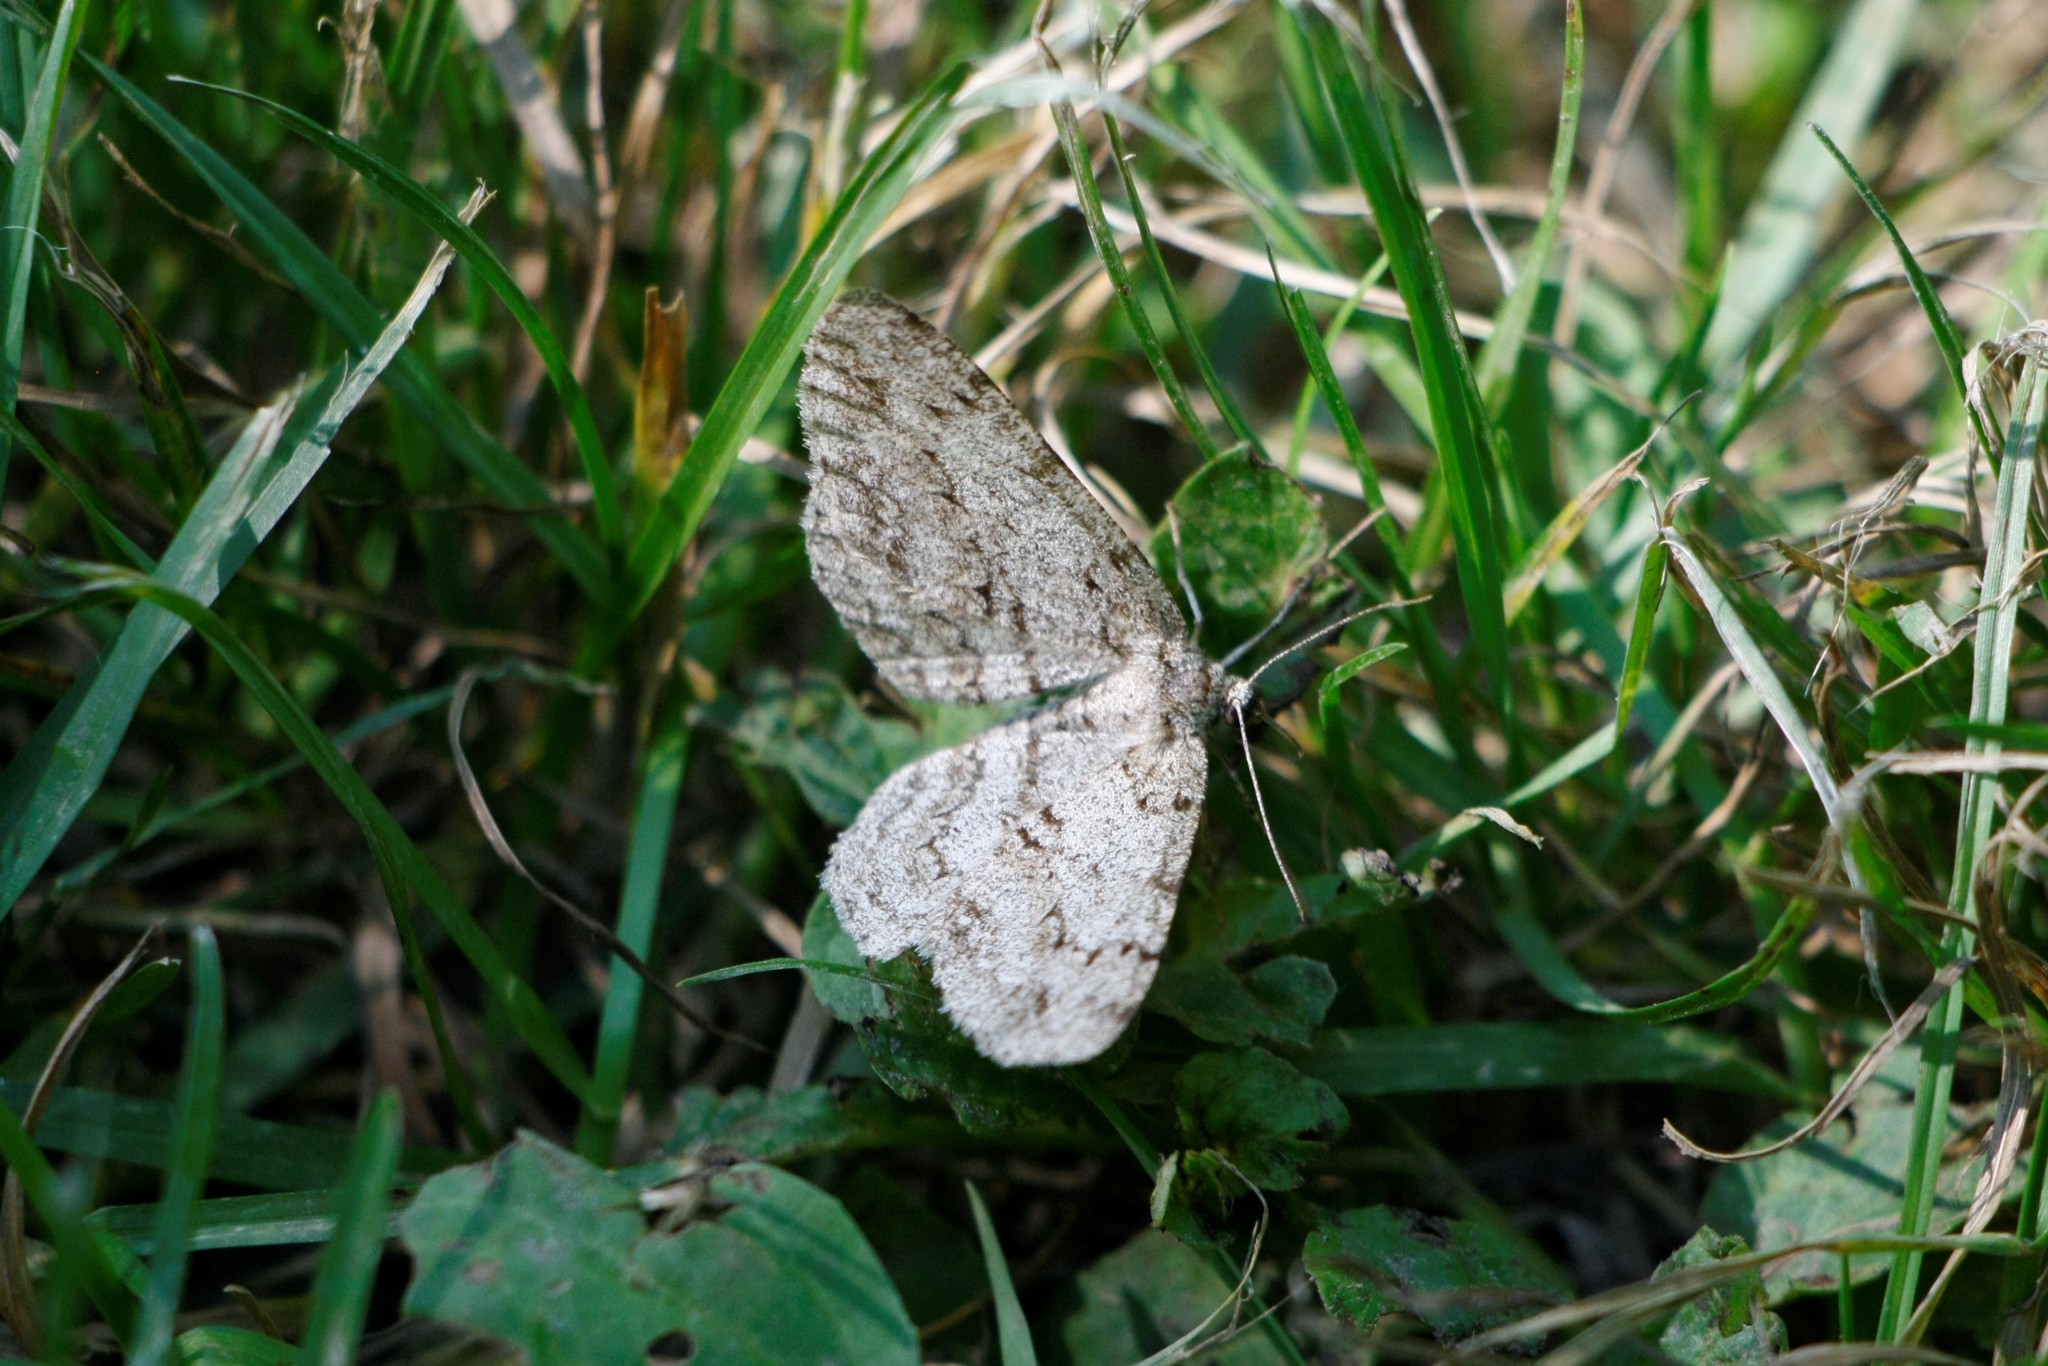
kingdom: Animalia
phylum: Arthropoda
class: Insecta
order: Lepidoptera
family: Geometridae
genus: Hypomecis
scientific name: Hypomecis punctinalis
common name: Pale oak beauty
